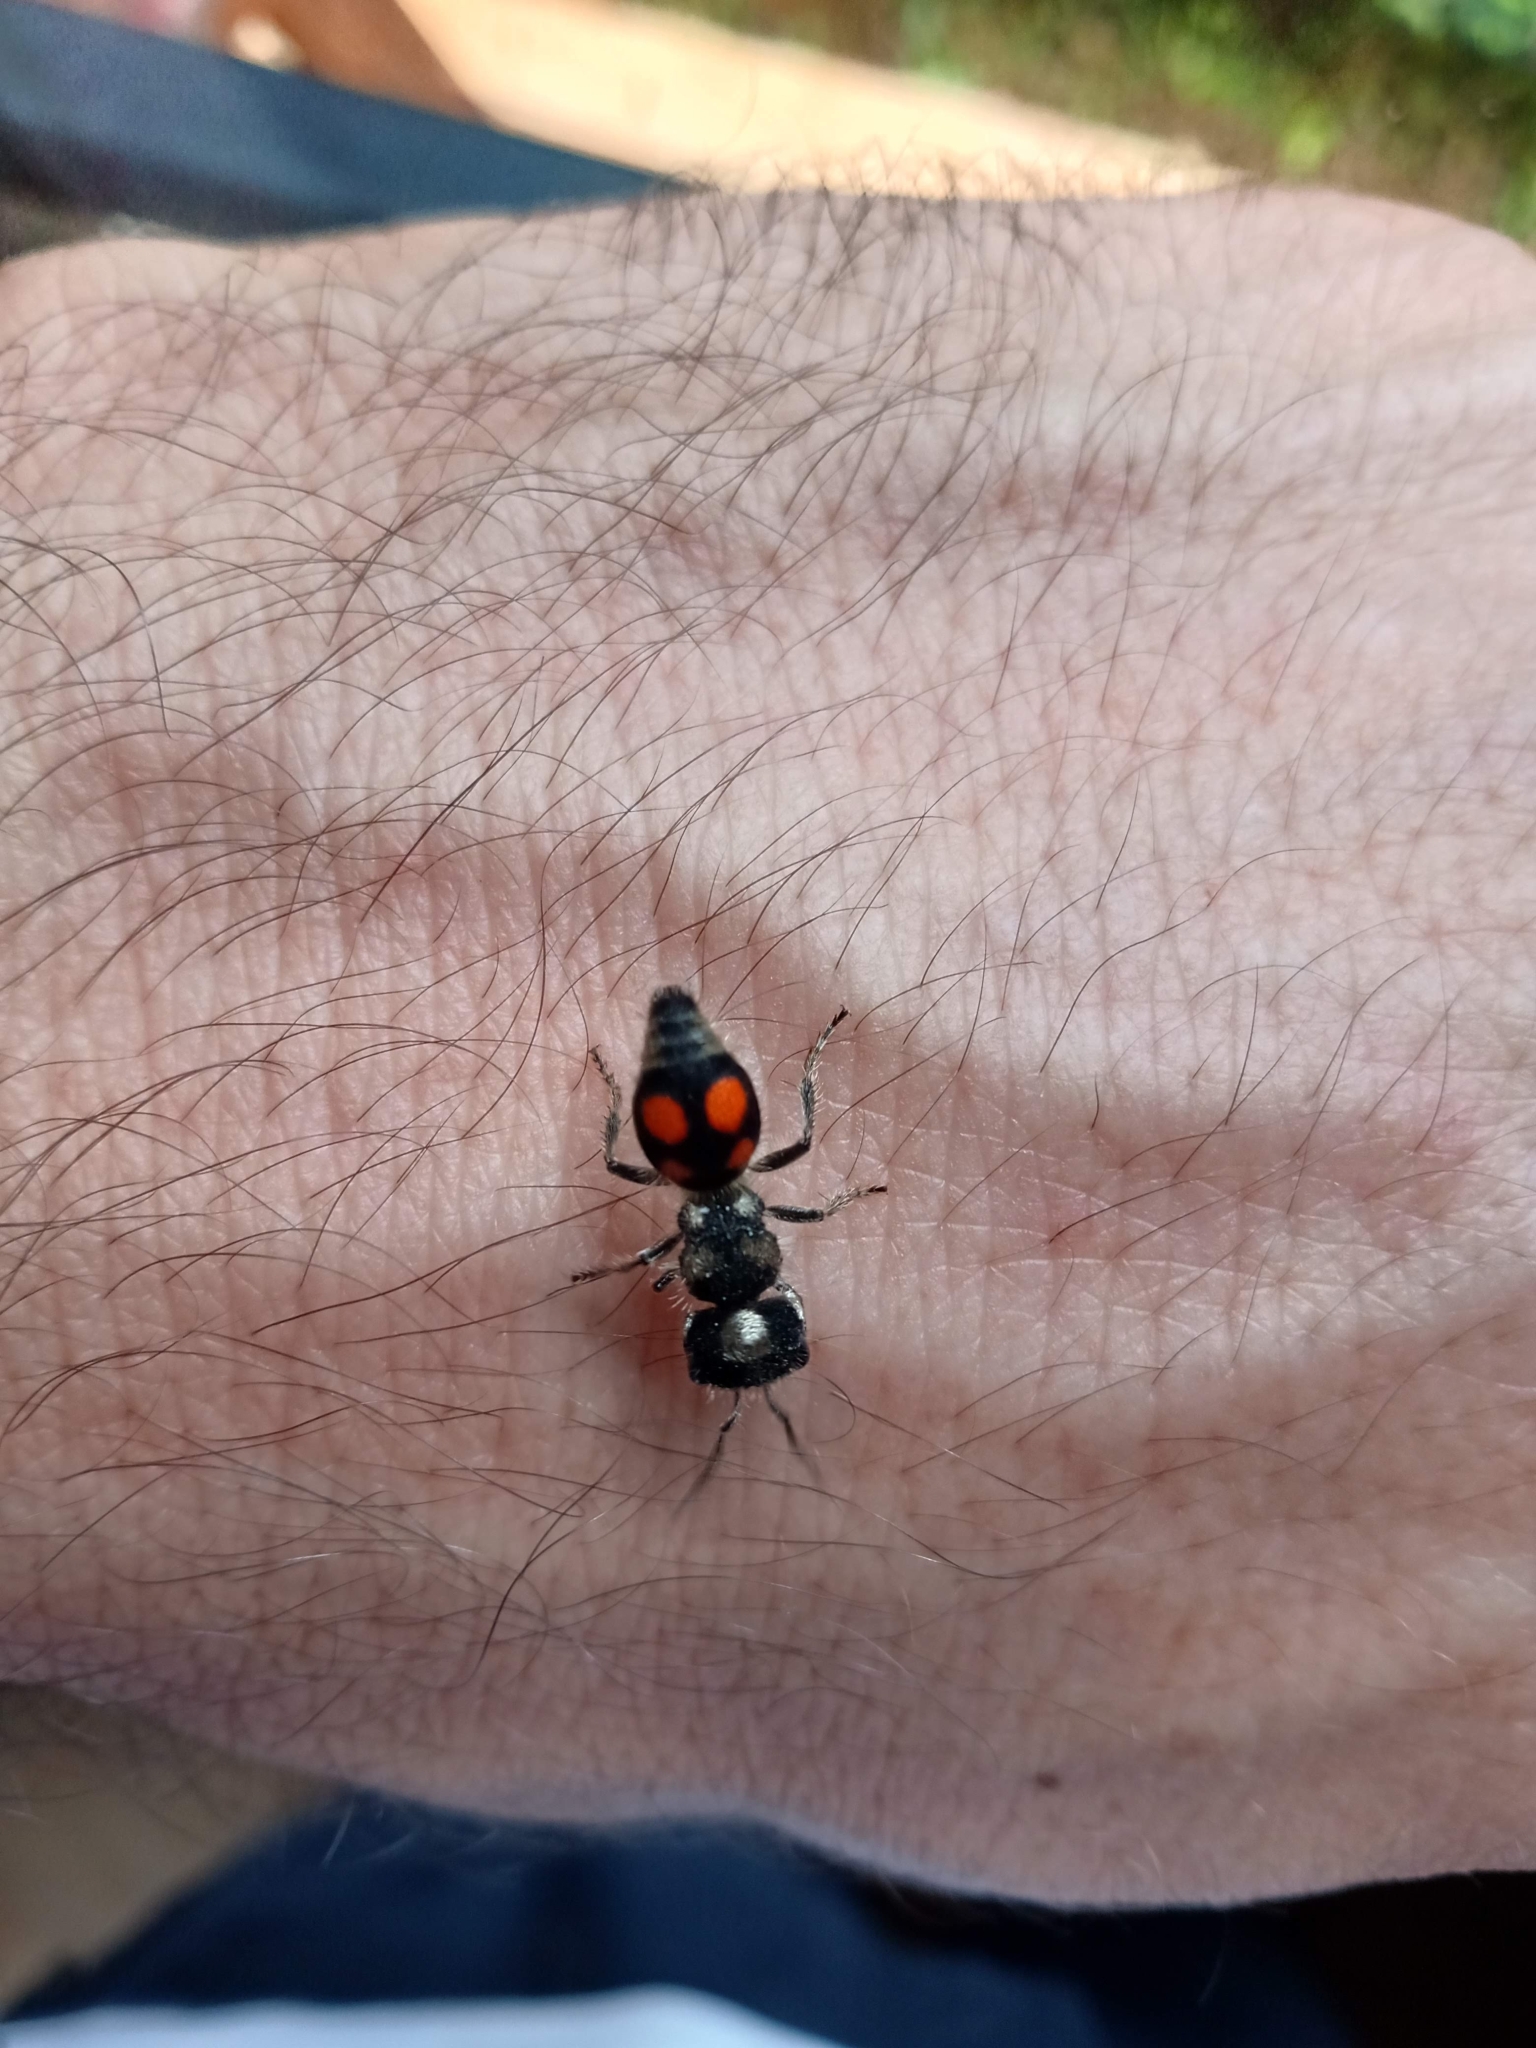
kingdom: Animalia
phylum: Arthropoda
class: Insecta
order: Hymenoptera
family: Mutillidae
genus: Pseudomethoca
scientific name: Pseudomethoca
